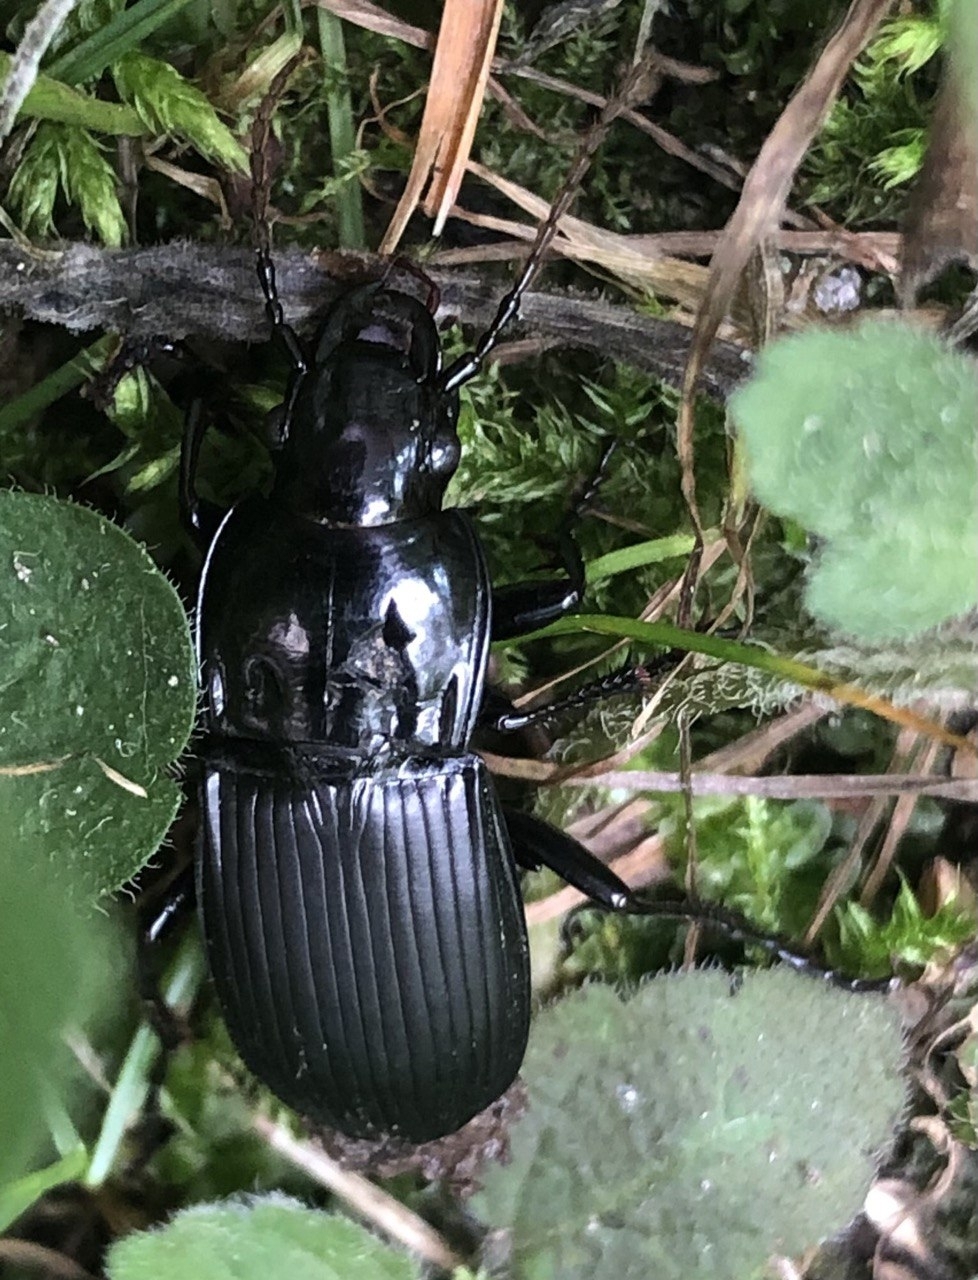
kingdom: Animalia
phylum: Arthropoda
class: Insecta
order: Coleoptera
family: Carabidae
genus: Abax
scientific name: Abax parallelepipedus
